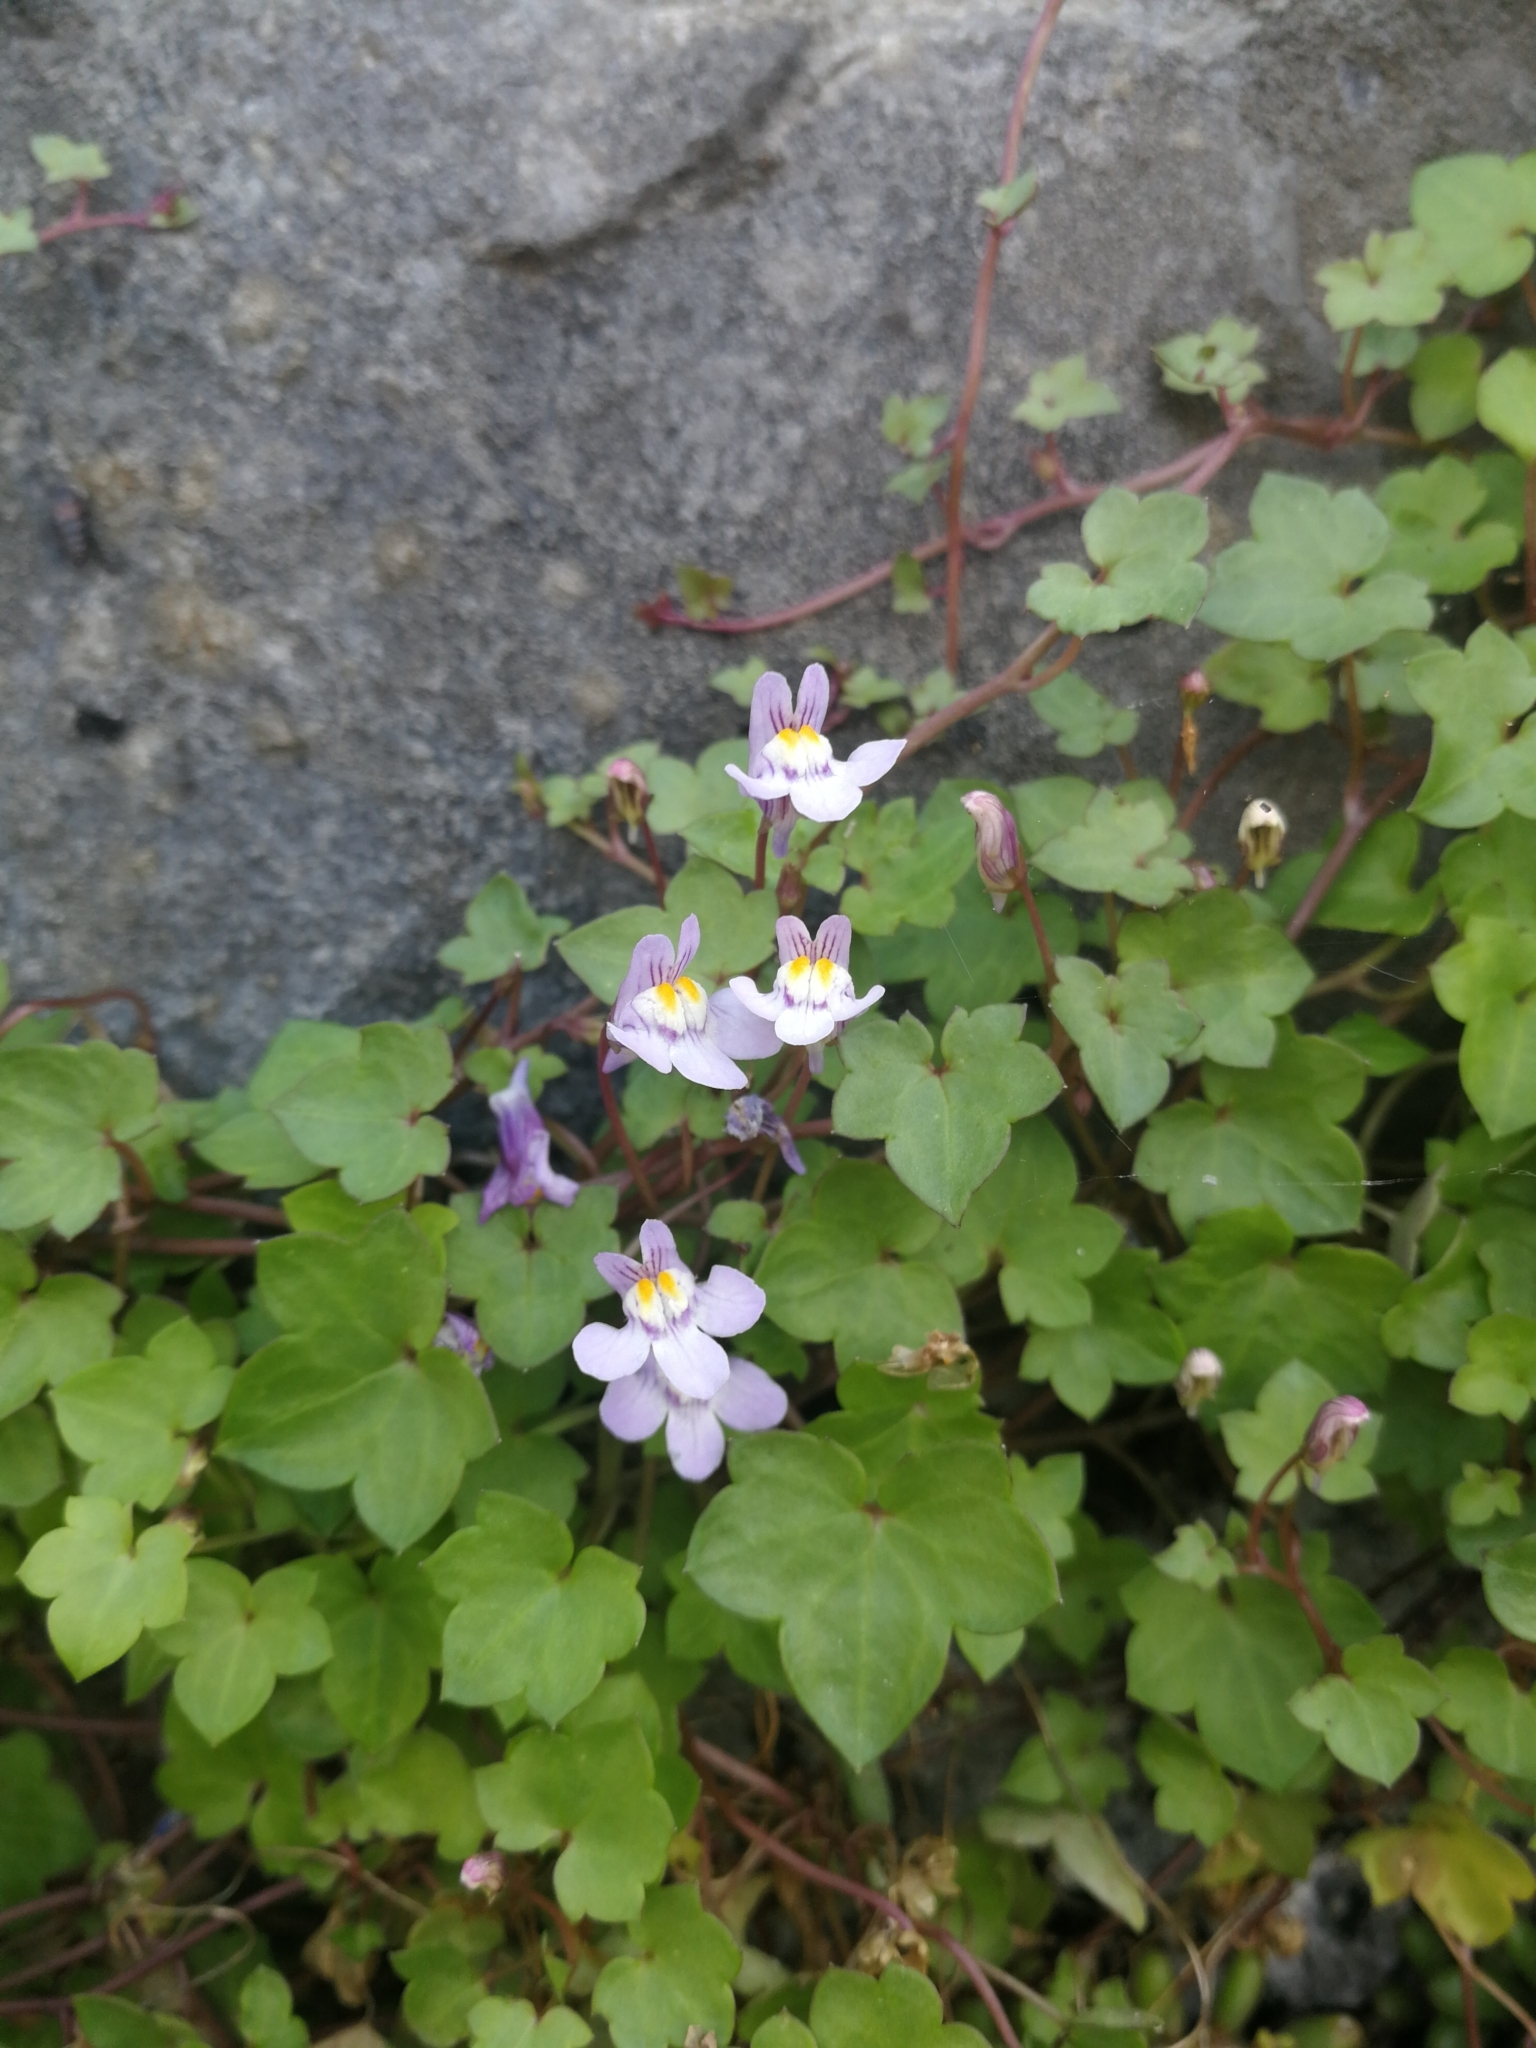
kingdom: Plantae
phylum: Tracheophyta
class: Magnoliopsida
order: Lamiales
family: Plantaginaceae
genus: Cymbalaria
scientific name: Cymbalaria muralis
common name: Ivy-leaved toadflax
